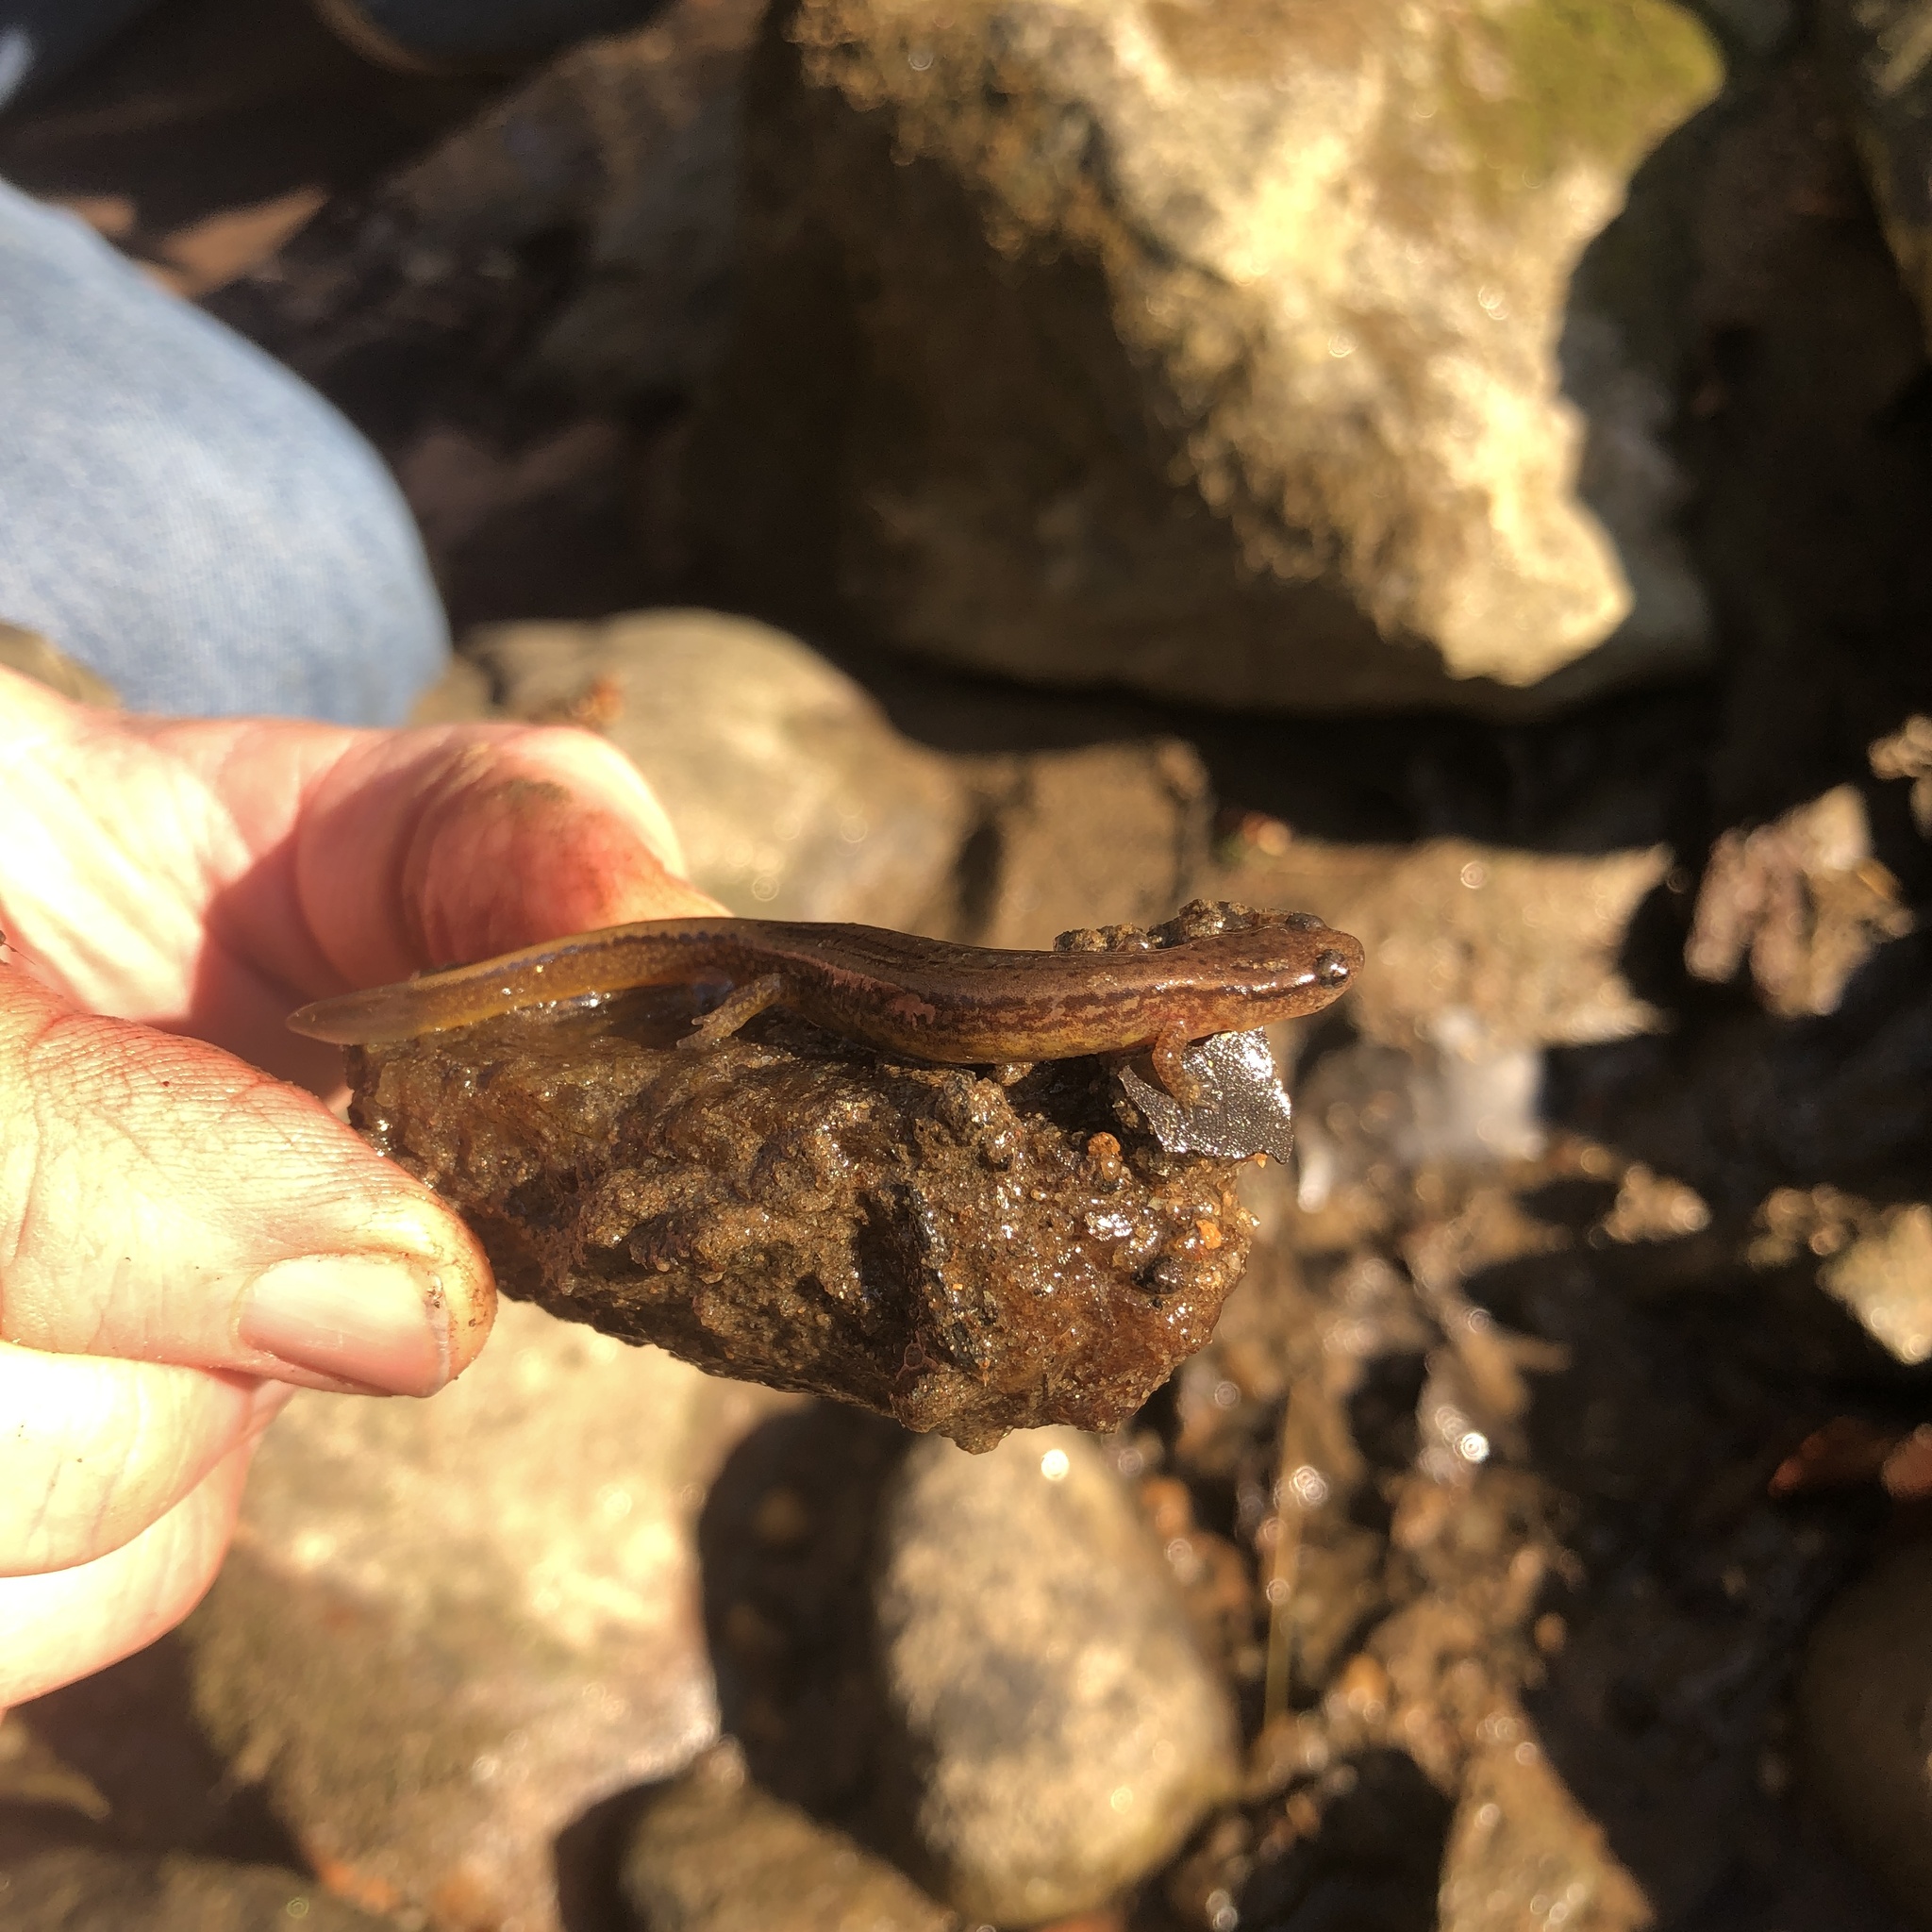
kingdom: Animalia
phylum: Chordata
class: Amphibia
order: Caudata
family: Plethodontidae
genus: Eurycea
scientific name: Eurycea bislineata
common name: Northern two-lined salamander
